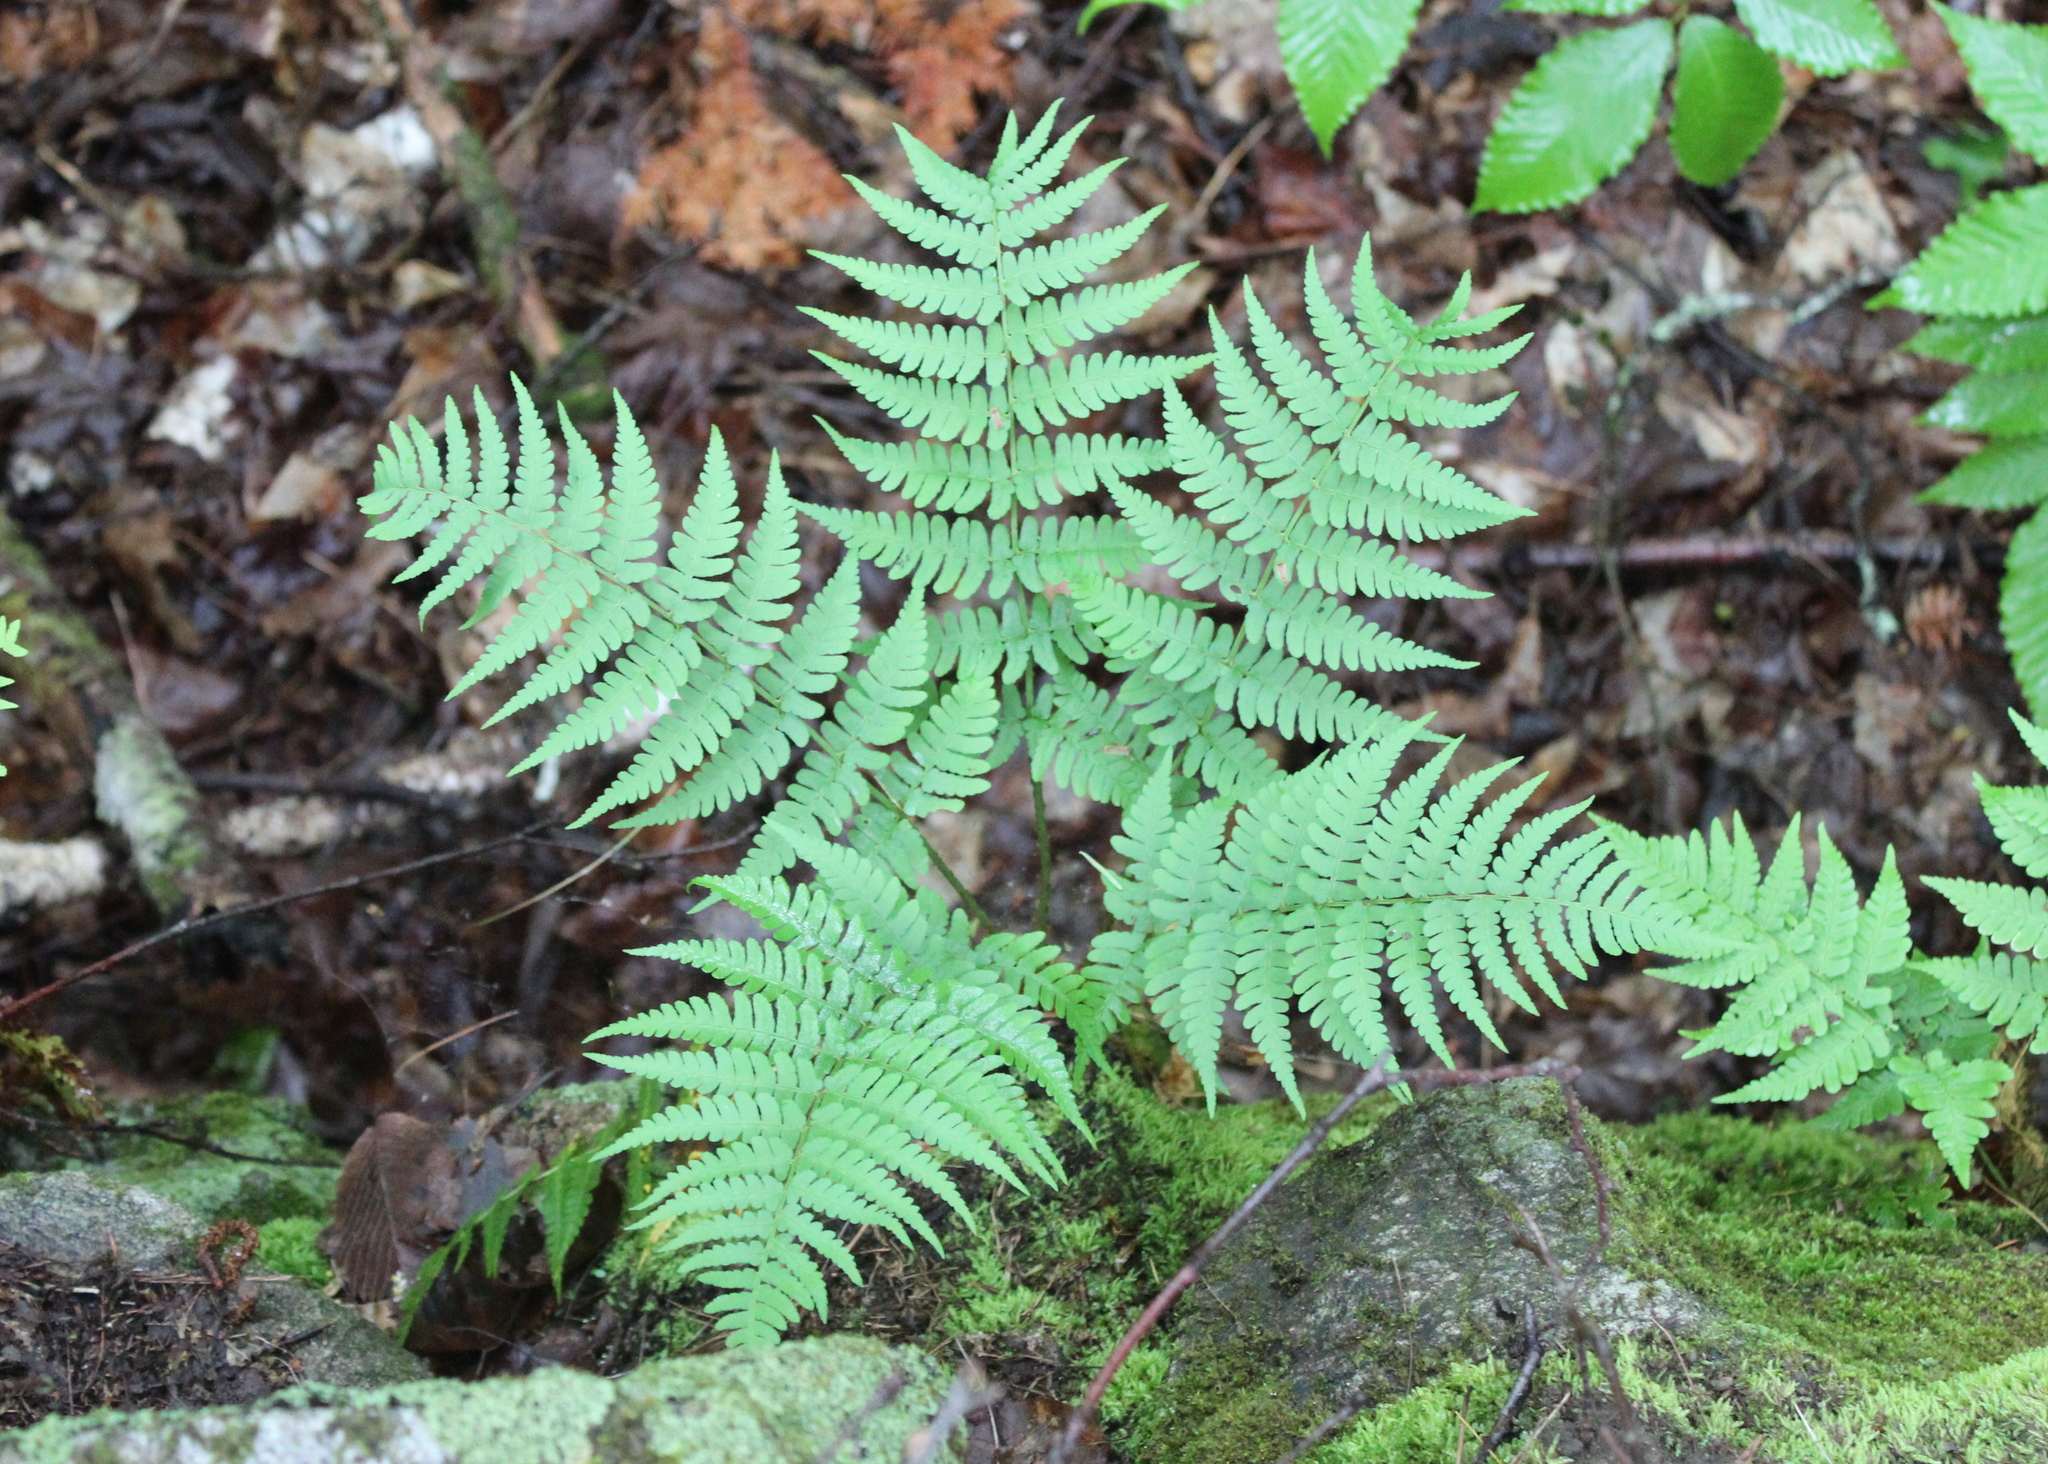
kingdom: Plantae
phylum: Tracheophyta
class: Polypodiopsida
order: Polypodiales
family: Dryopteridaceae
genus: Dryopteris
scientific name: Dryopteris marginalis
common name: Marginal wood fern
